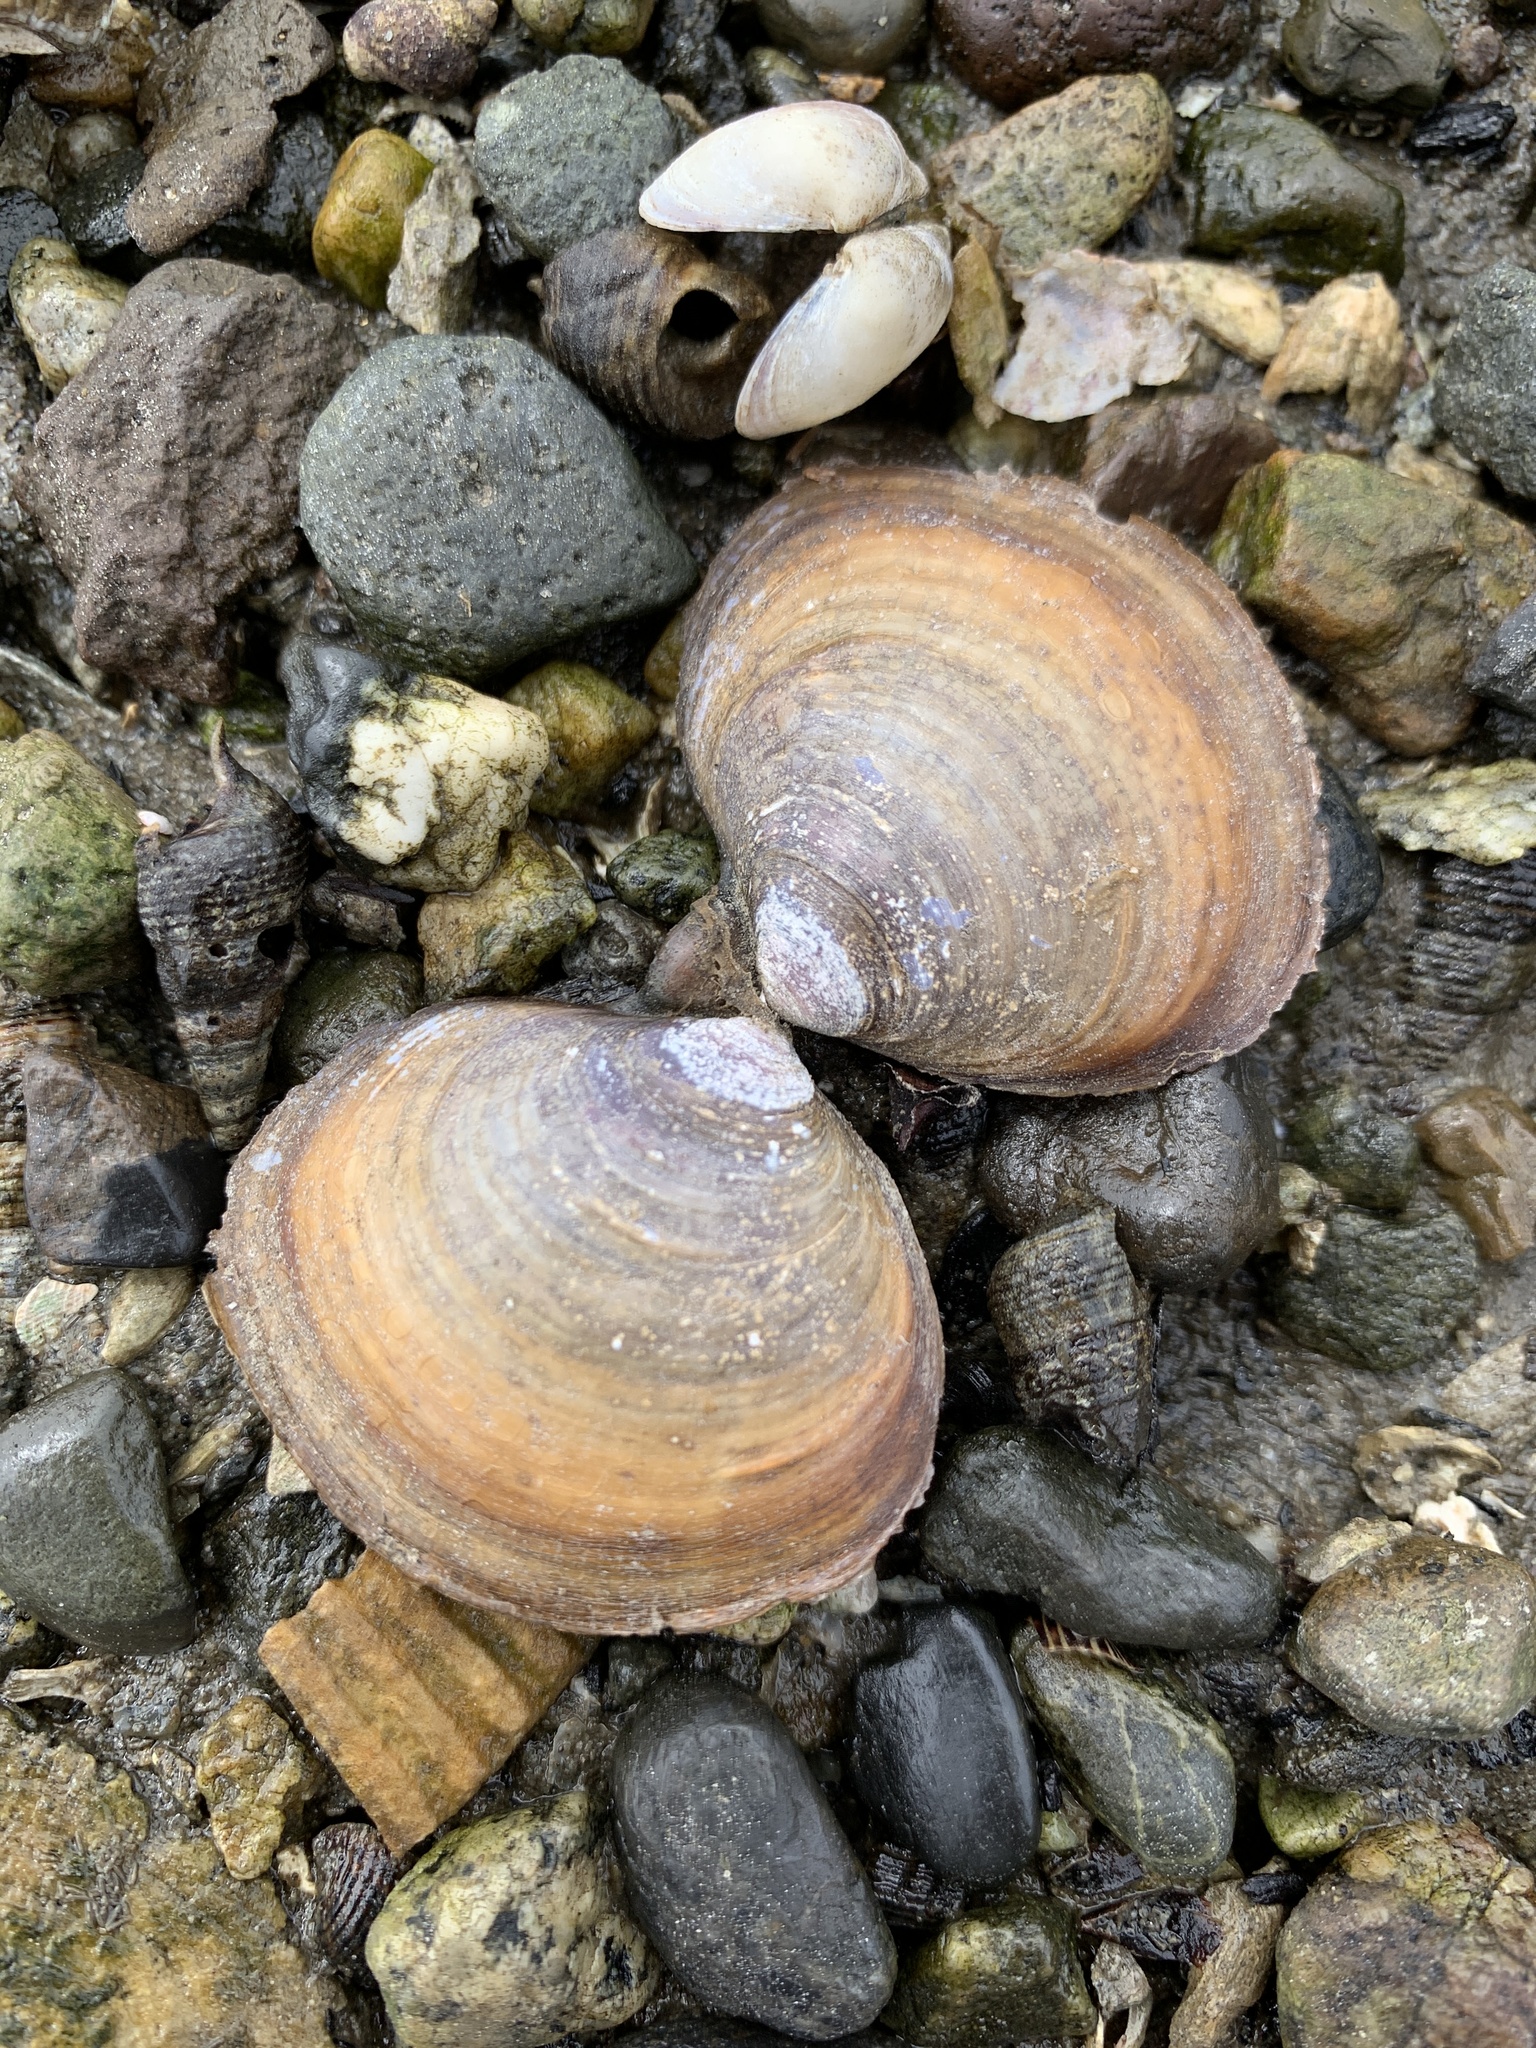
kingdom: Animalia
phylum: Mollusca
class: Bivalvia
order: Cardiida
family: Psammobiidae
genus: Nuttallia
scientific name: Nuttallia obscurata
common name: Purple mahogany-clam
